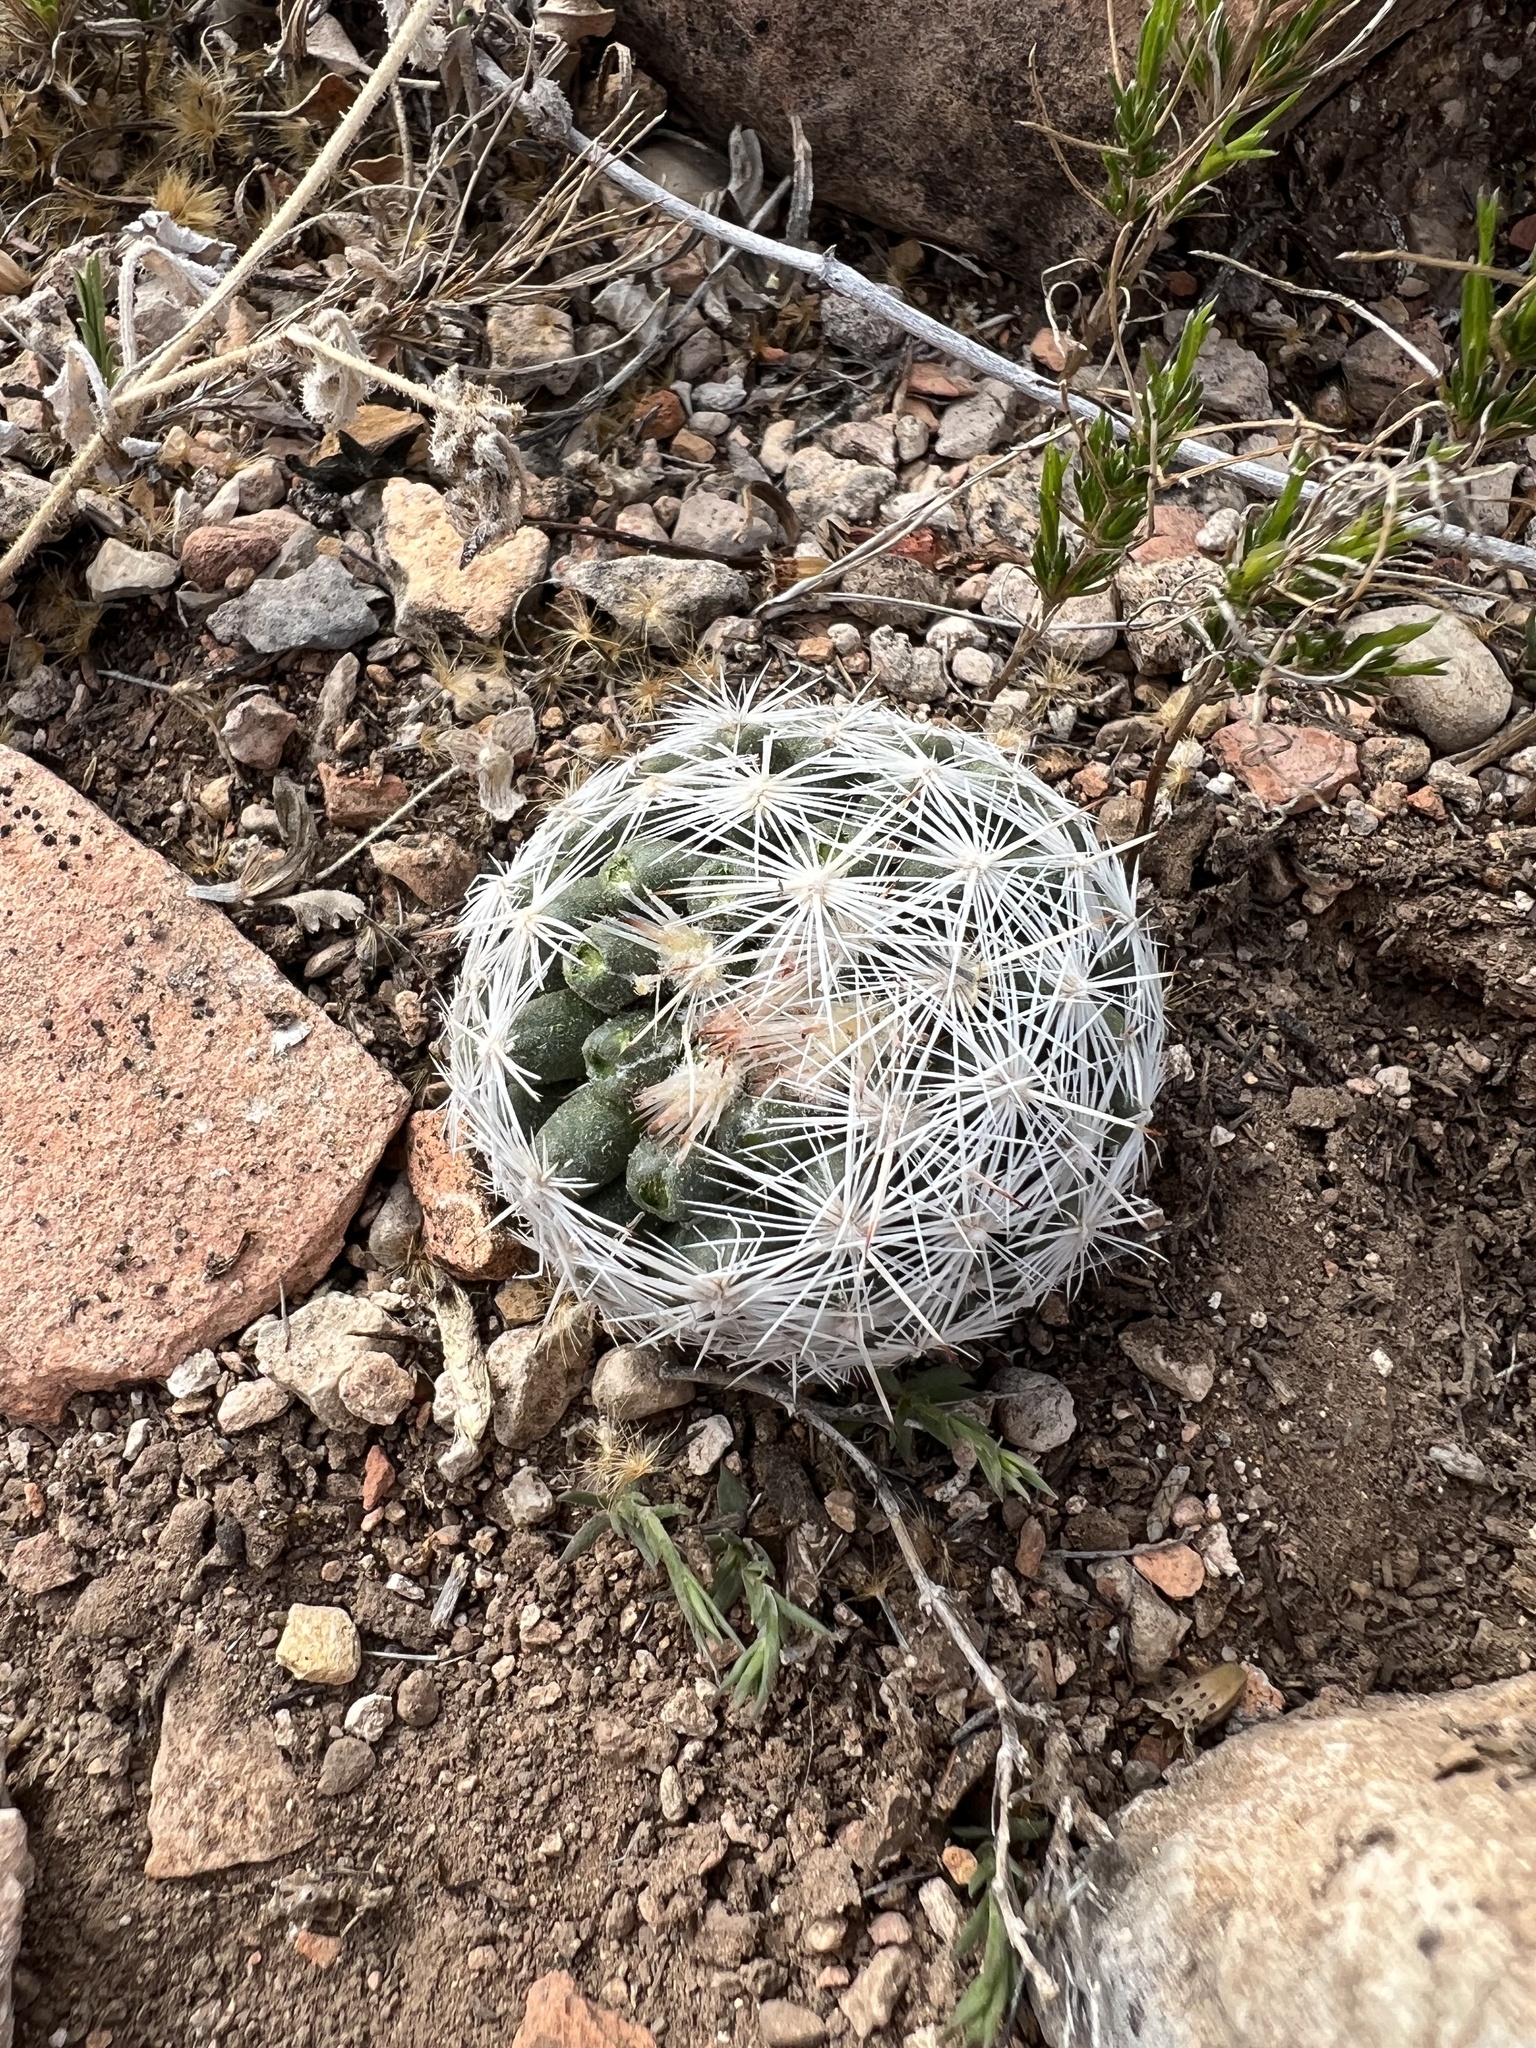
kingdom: Plantae
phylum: Tracheophyta
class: Magnoliopsida
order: Caryophyllales
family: Cactaceae
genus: Pelecyphora
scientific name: Pelecyphora vivipara
